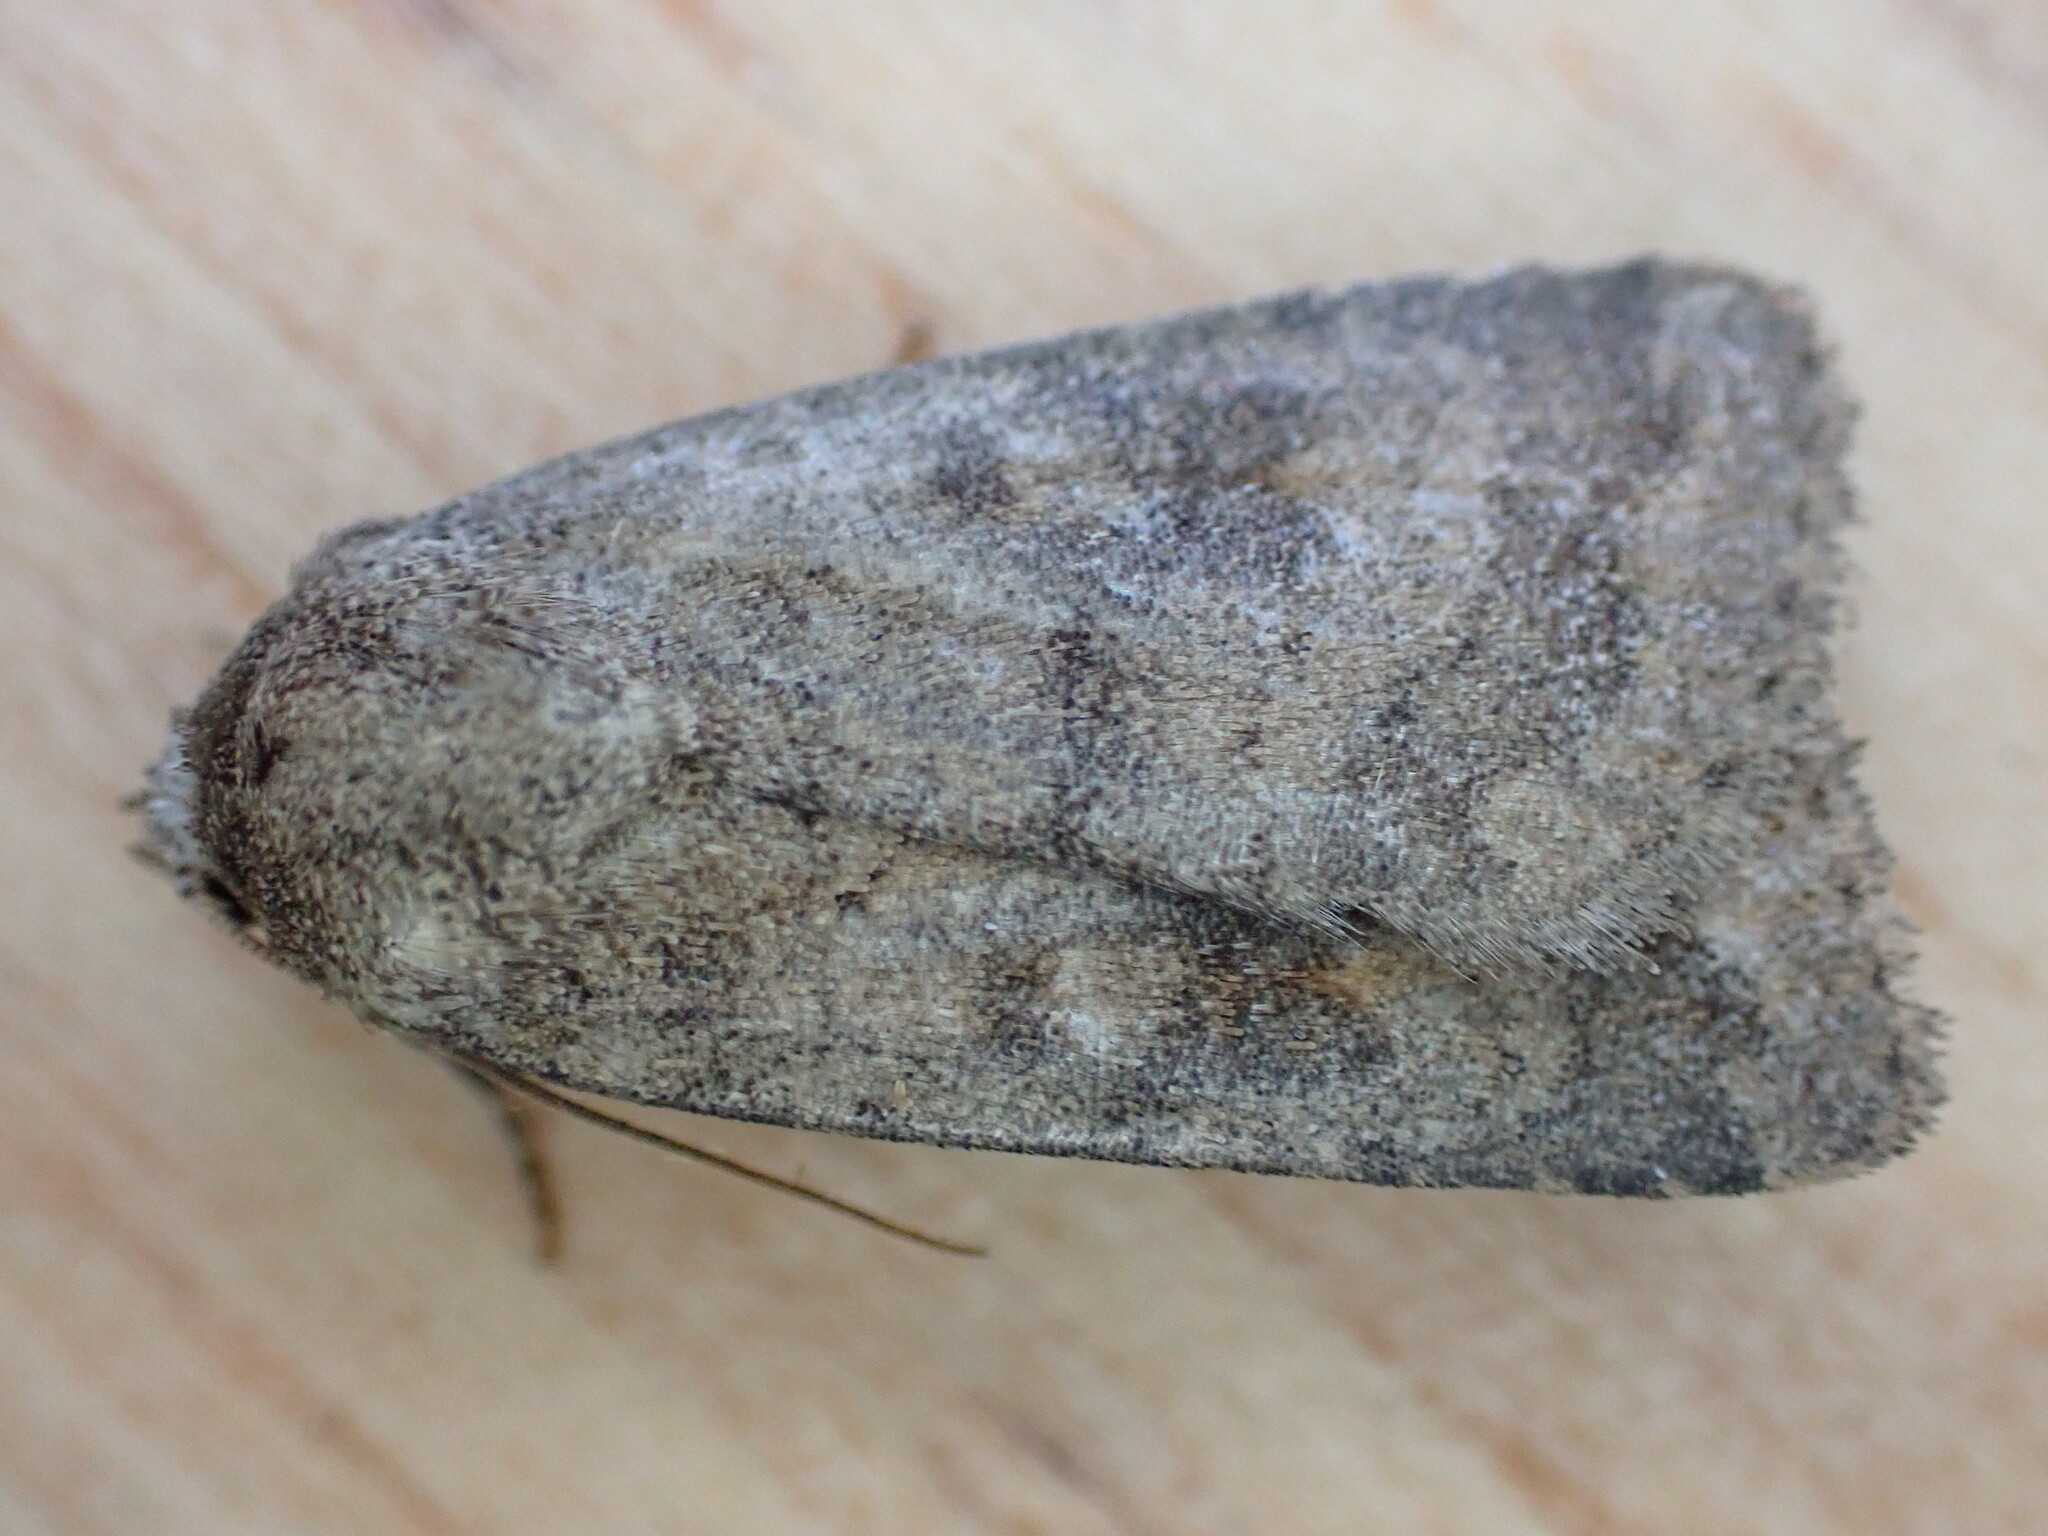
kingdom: Animalia
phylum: Arthropoda
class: Insecta
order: Lepidoptera
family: Noctuidae
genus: Caradrina
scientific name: Caradrina morpheus
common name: Mottled rustic
